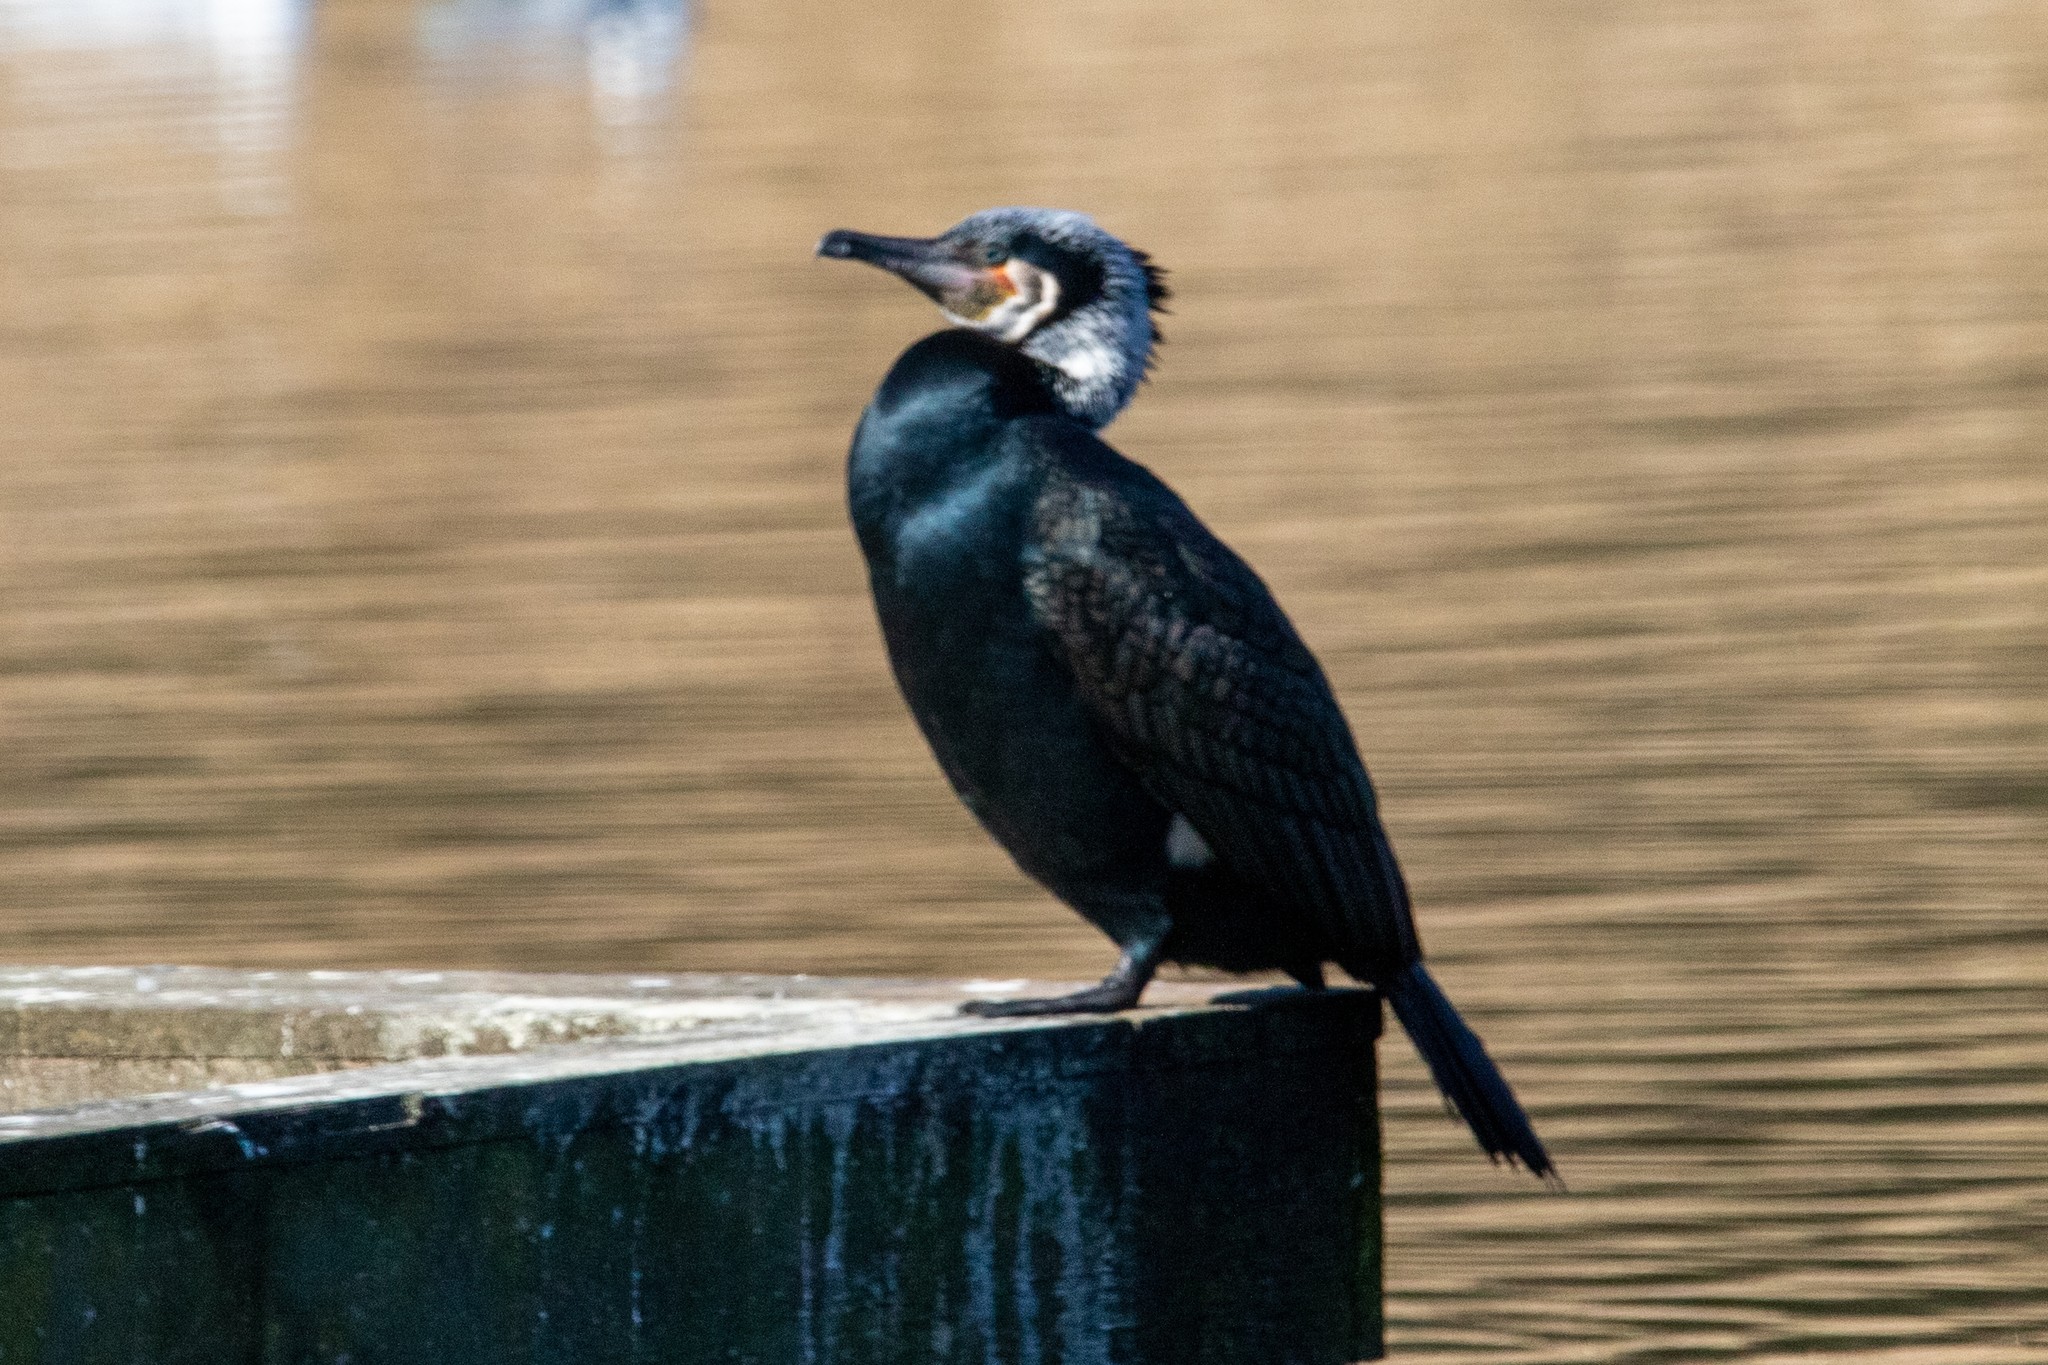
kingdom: Animalia
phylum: Chordata
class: Aves
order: Suliformes
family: Phalacrocoracidae
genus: Phalacrocorax
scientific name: Phalacrocorax carbo
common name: Great cormorant
